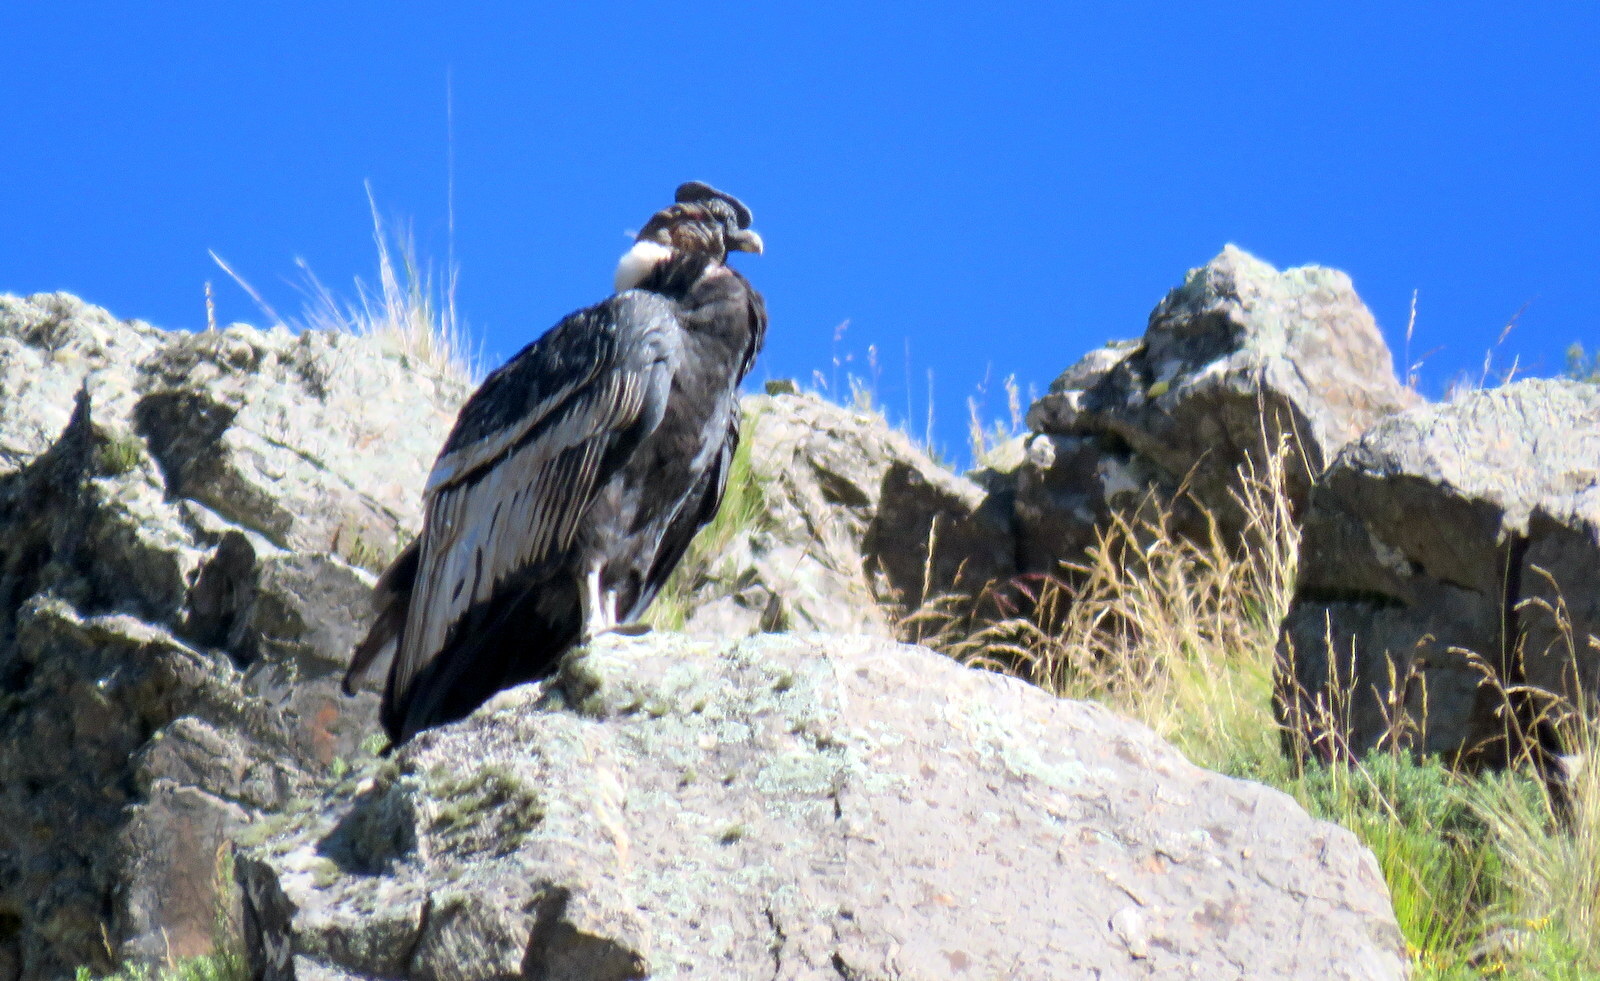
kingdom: Animalia
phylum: Chordata
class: Aves
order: Accipitriformes
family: Cathartidae
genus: Vultur
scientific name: Vultur gryphus
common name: Andean condor
